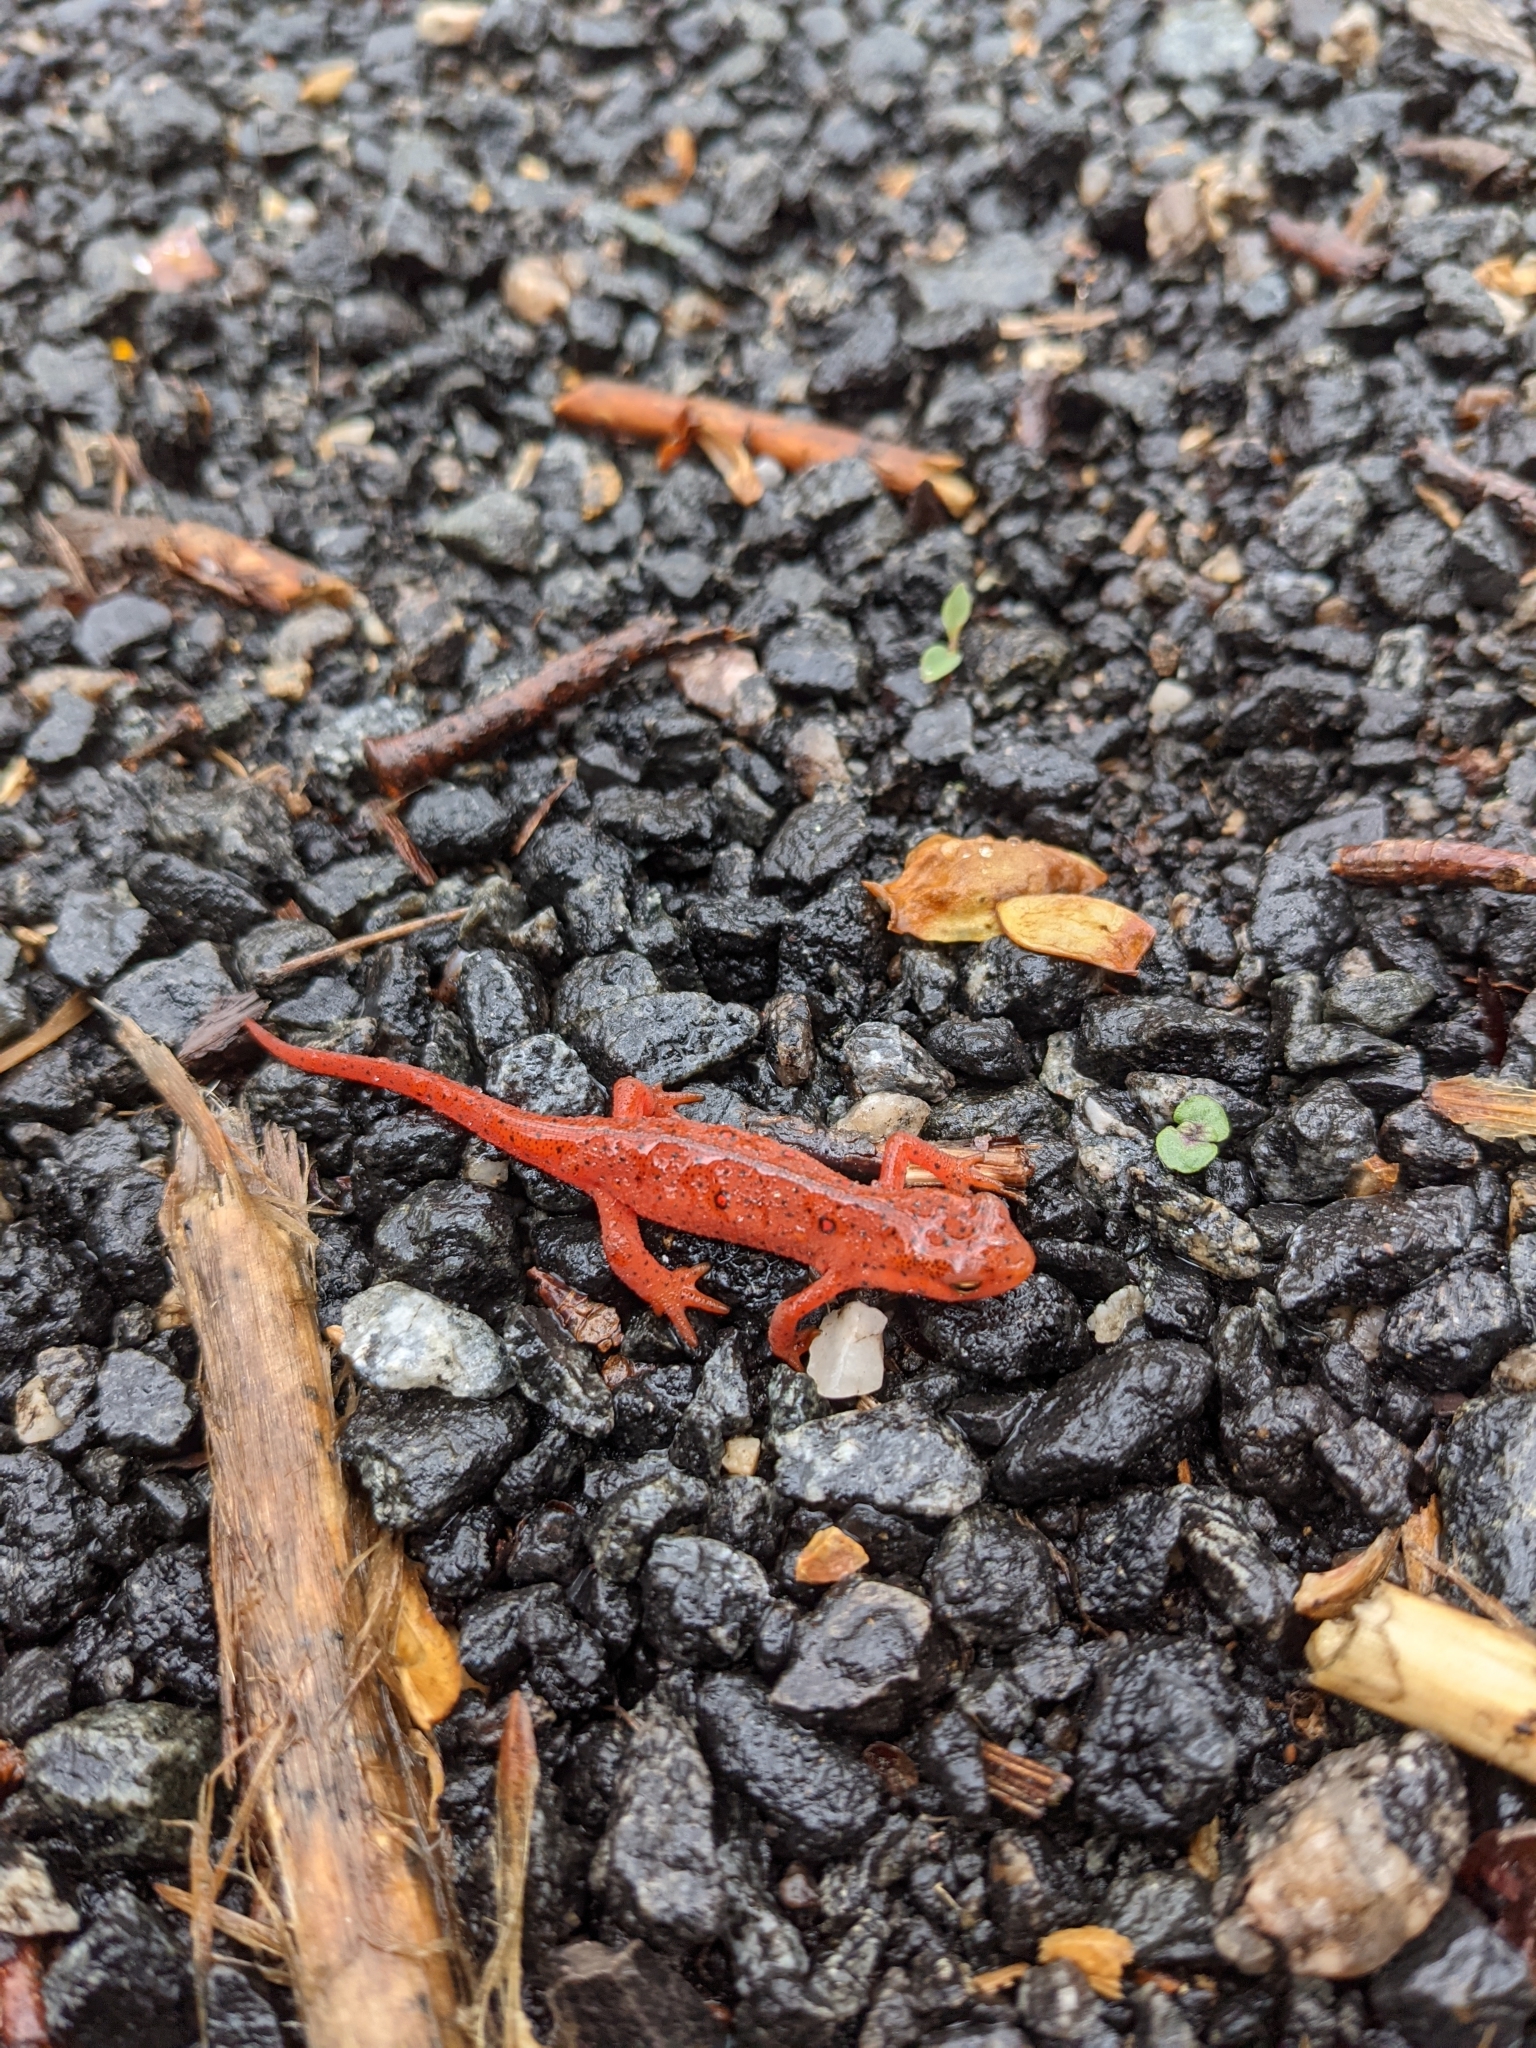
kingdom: Animalia
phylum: Chordata
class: Amphibia
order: Caudata
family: Salamandridae
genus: Notophthalmus
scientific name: Notophthalmus viridescens
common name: Eastern newt
